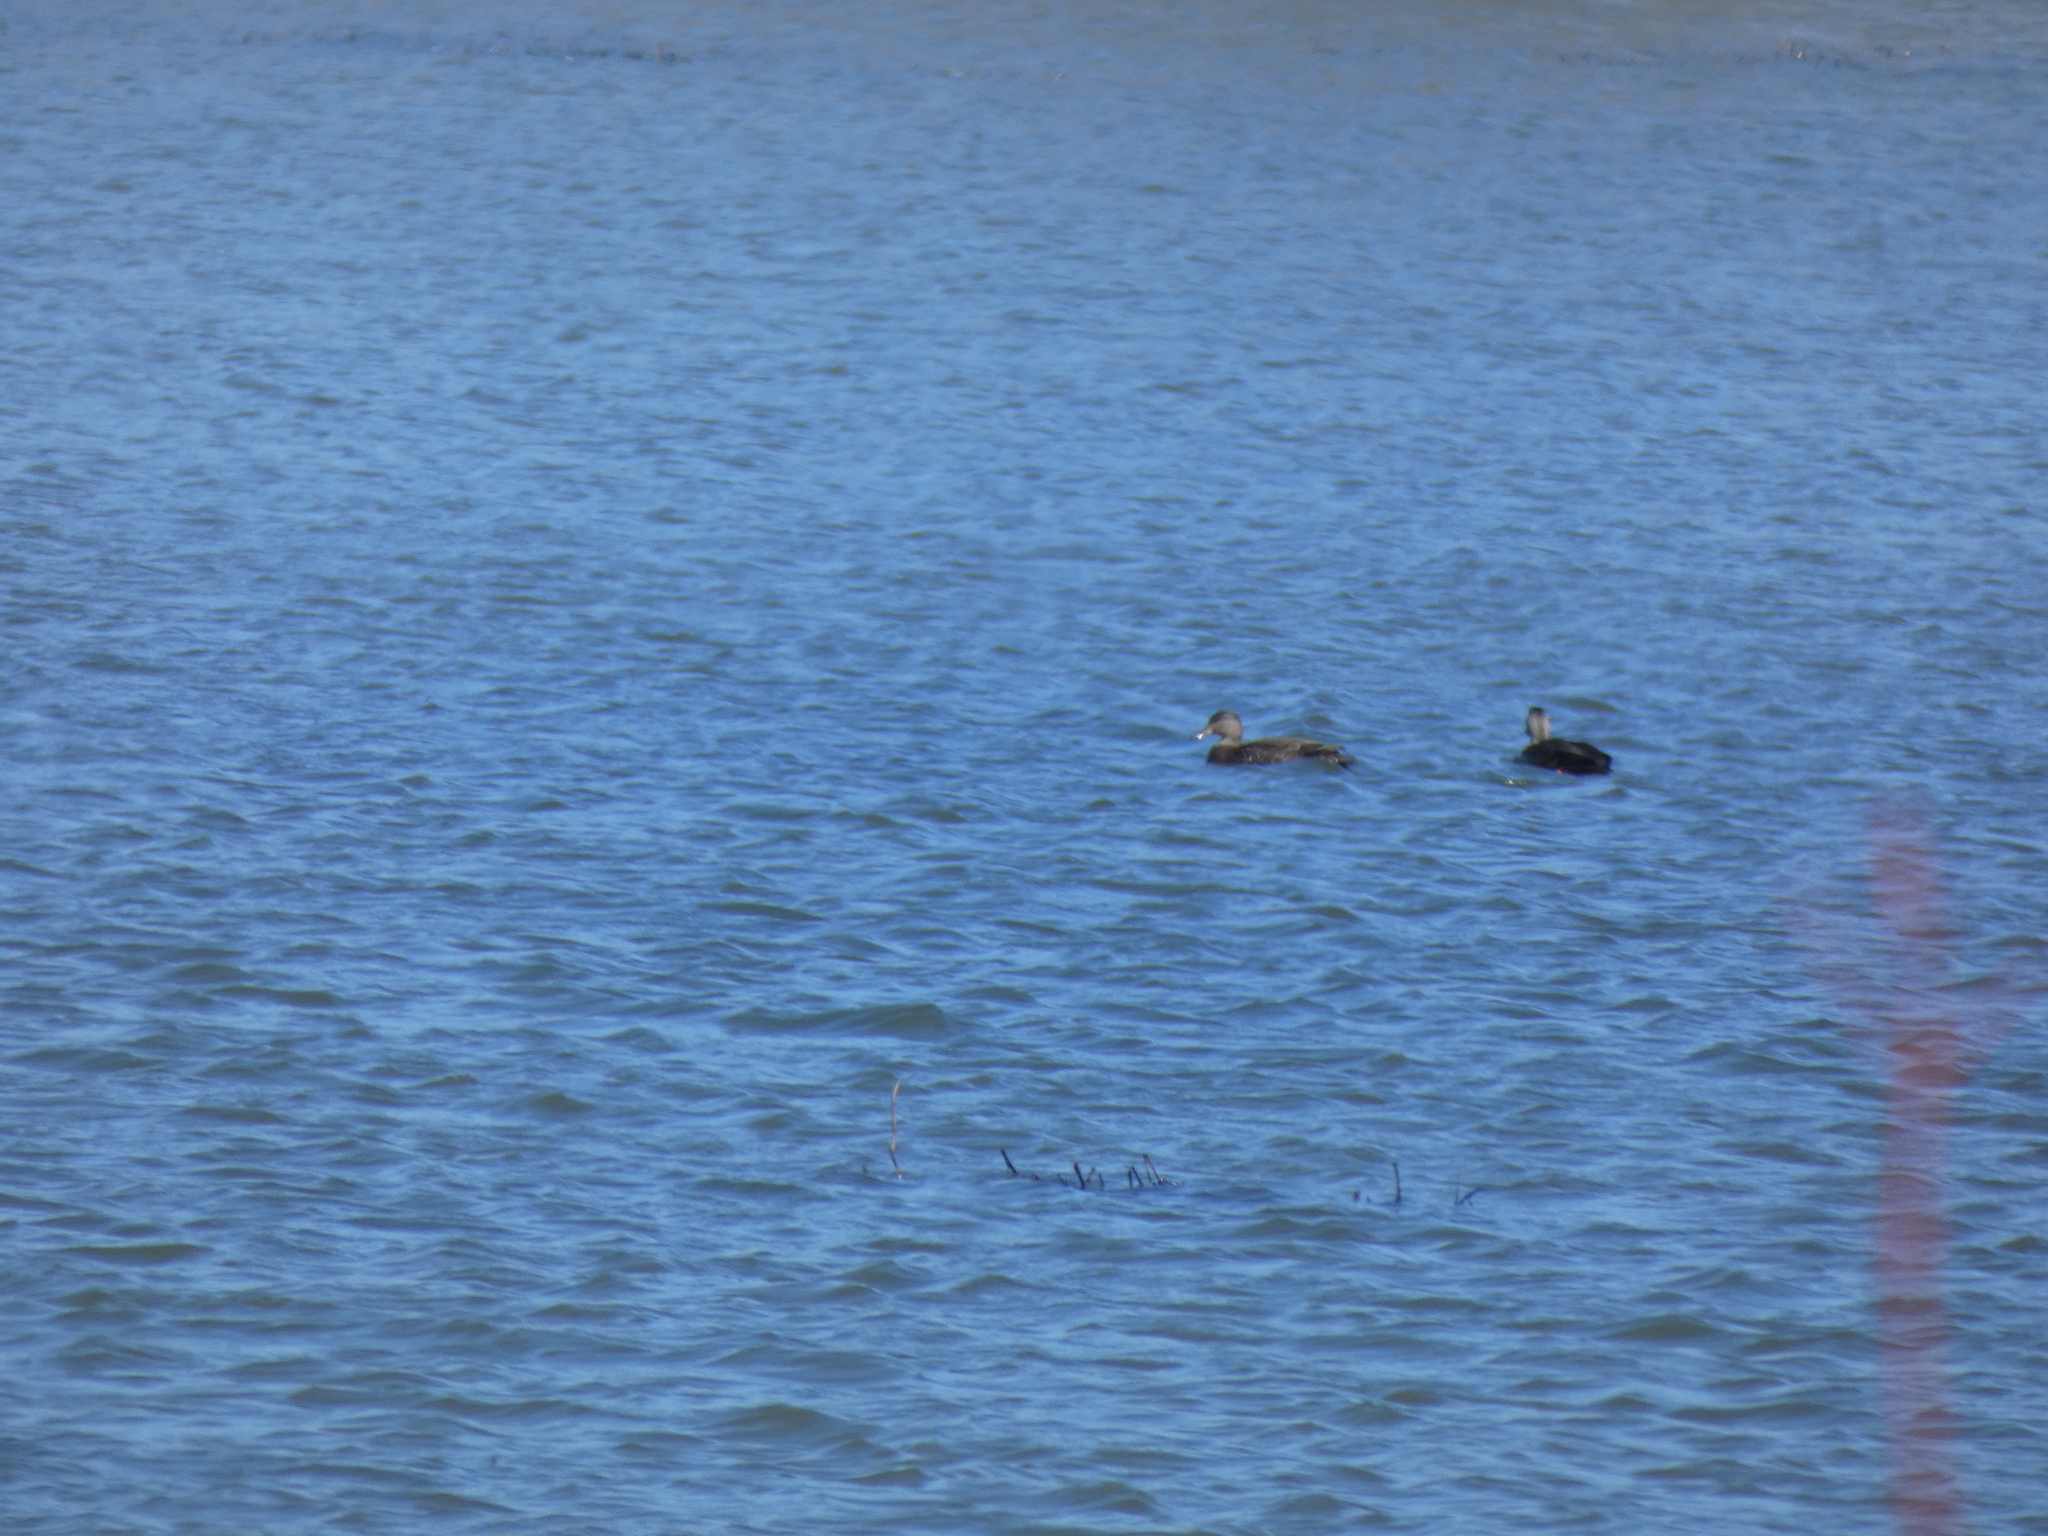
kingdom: Animalia
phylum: Chordata
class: Aves
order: Anseriformes
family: Anatidae
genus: Anas
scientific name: Anas rubripes
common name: American black duck
